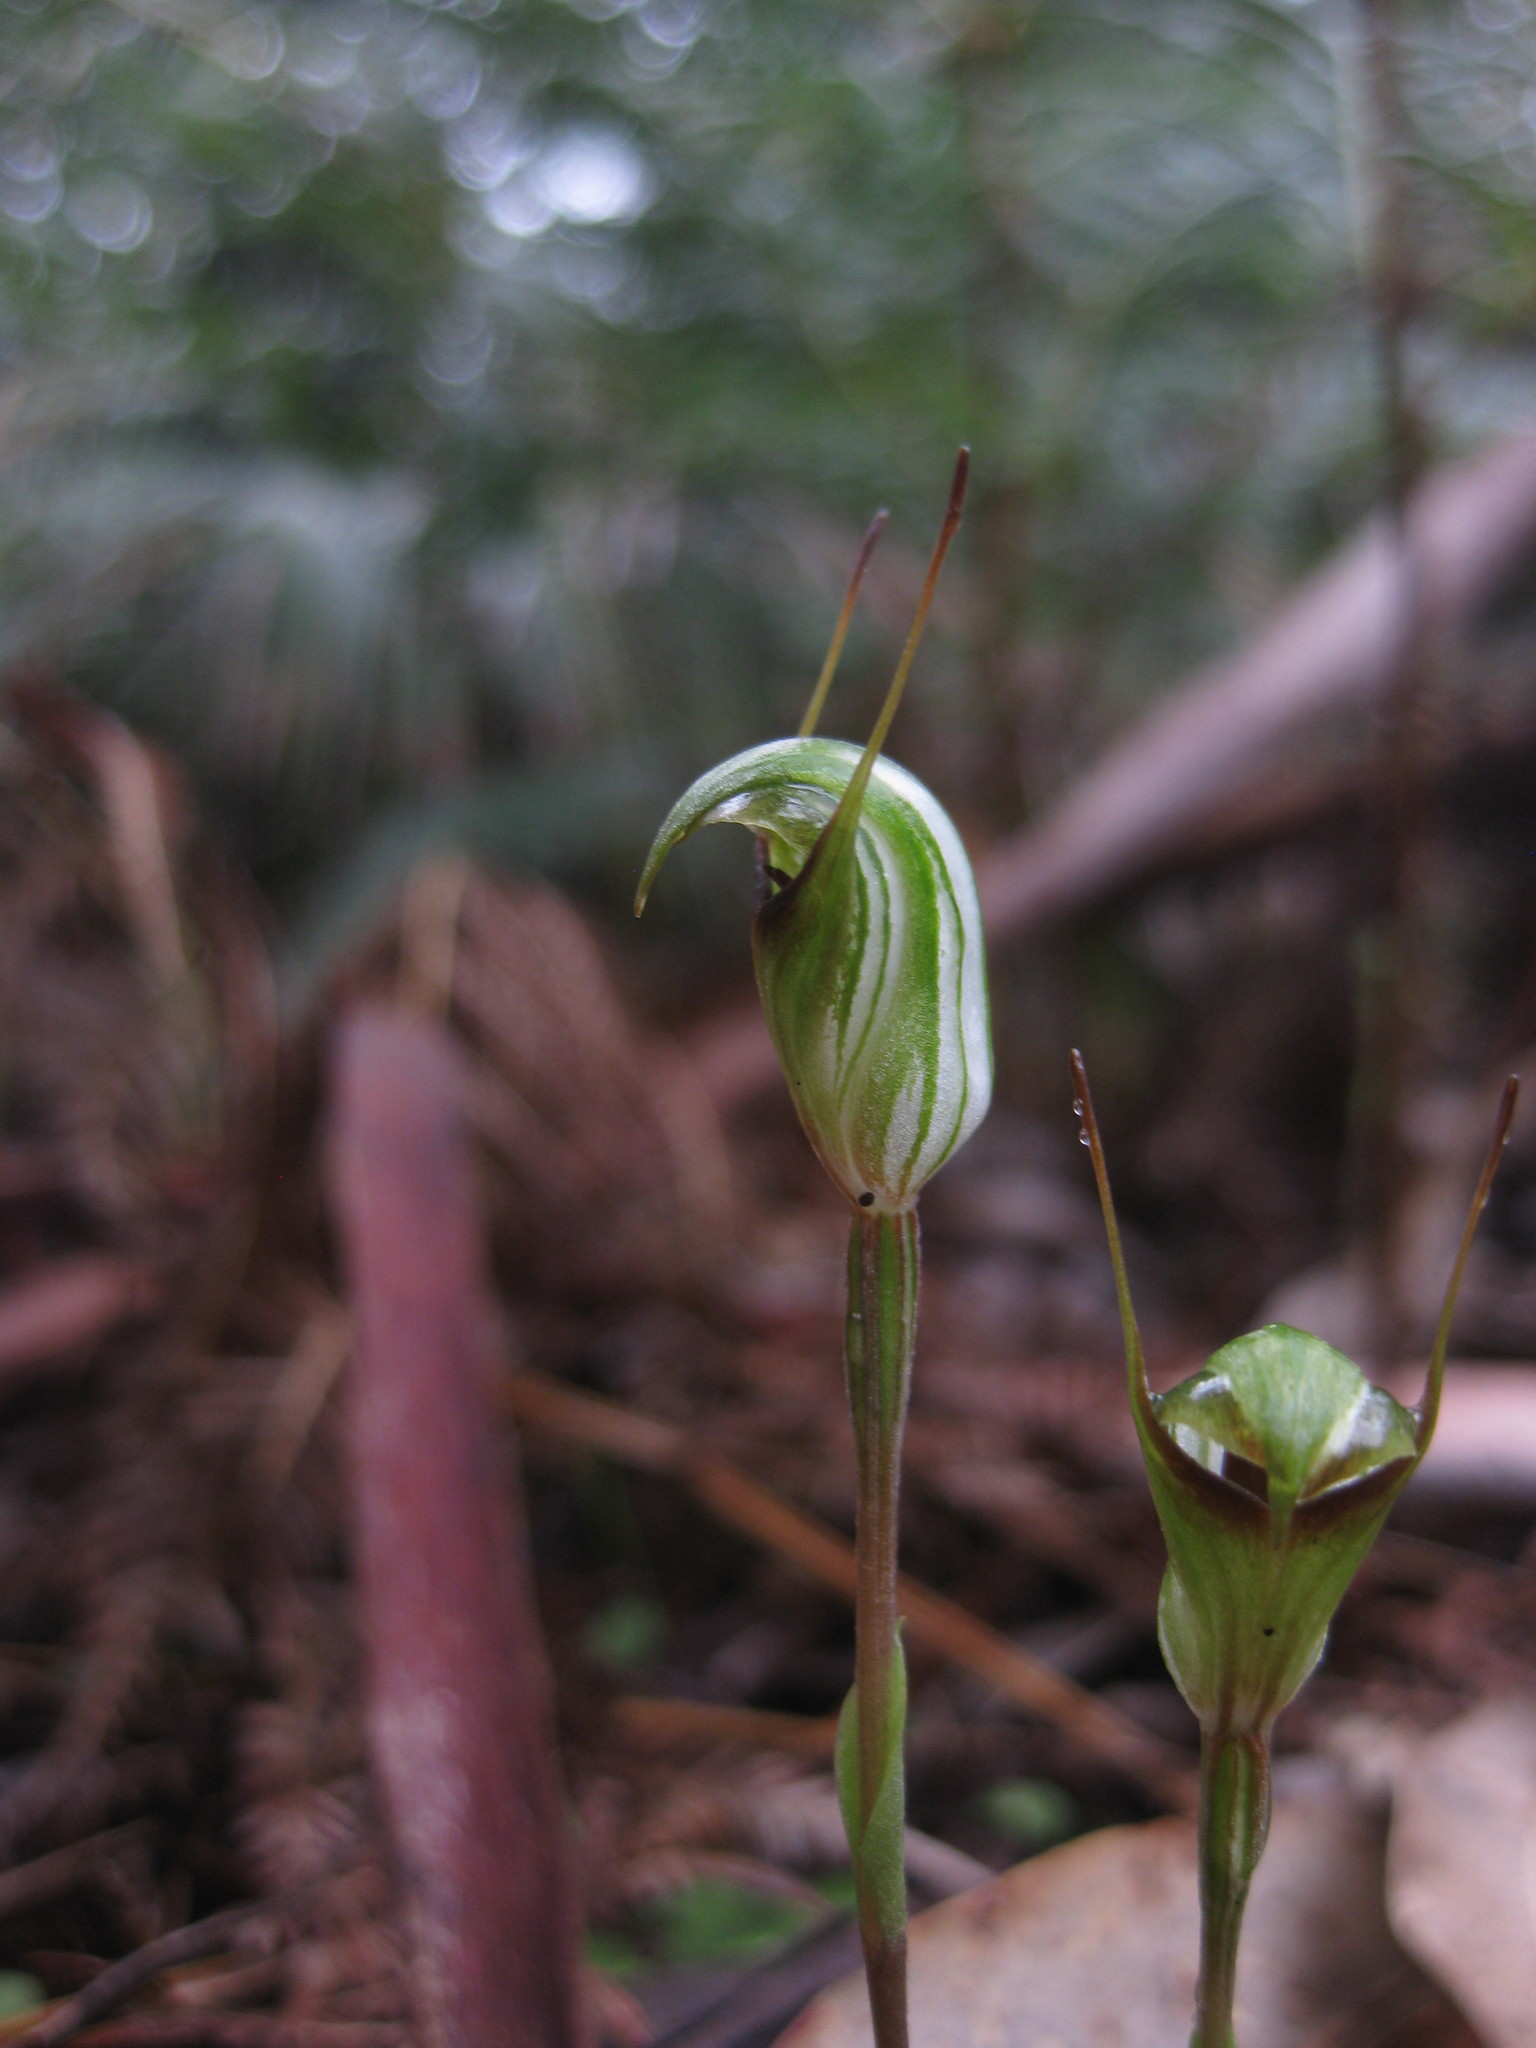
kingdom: Plantae
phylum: Tracheophyta
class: Liliopsida
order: Asparagales
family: Orchidaceae
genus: Pterostylis
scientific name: Pterostylis concinna
